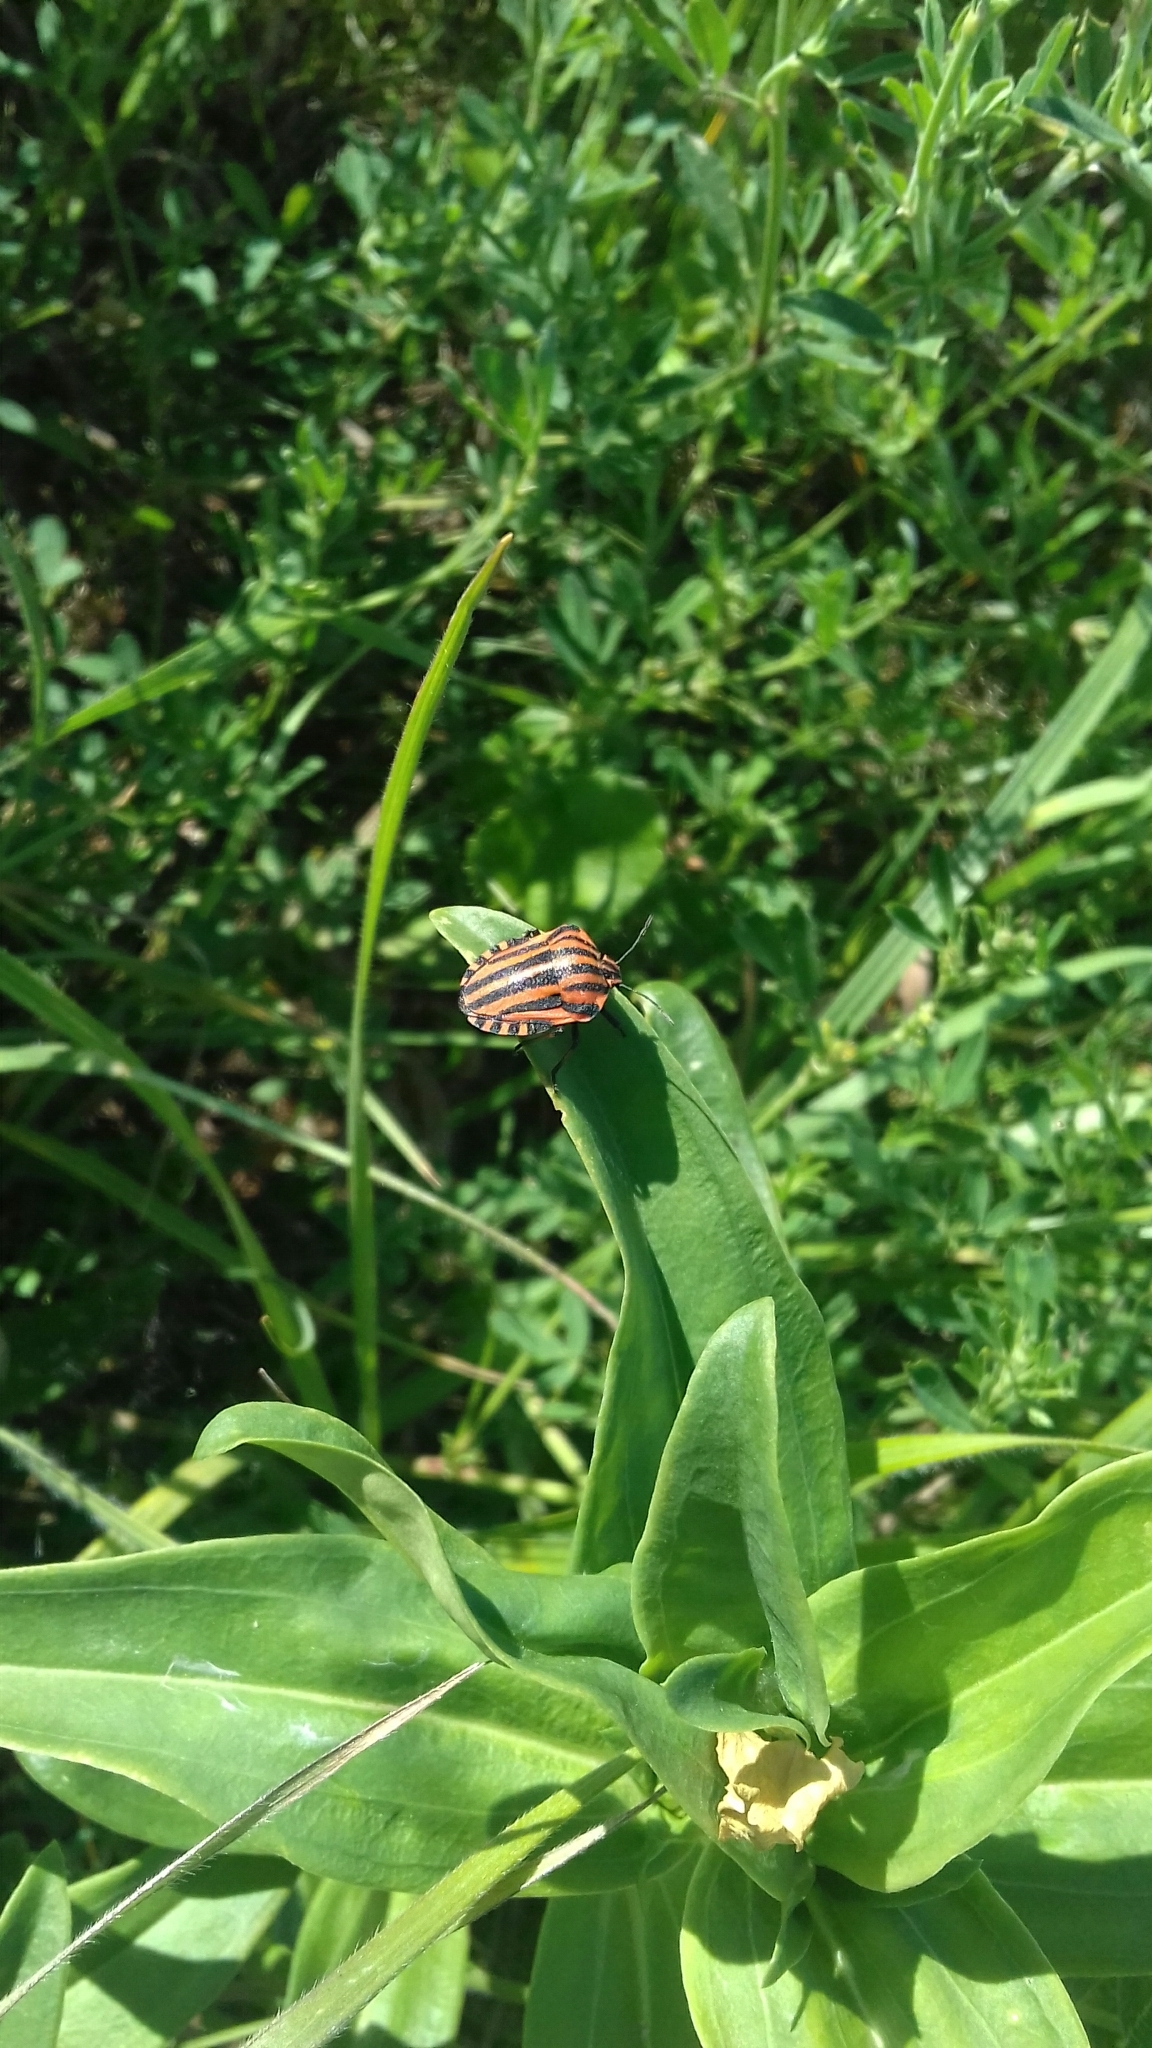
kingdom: Animalia
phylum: Arthropoda
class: Insecta
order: Hemiptera
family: Pentatomidae
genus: Graphosoma
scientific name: Graphosoma italicum
